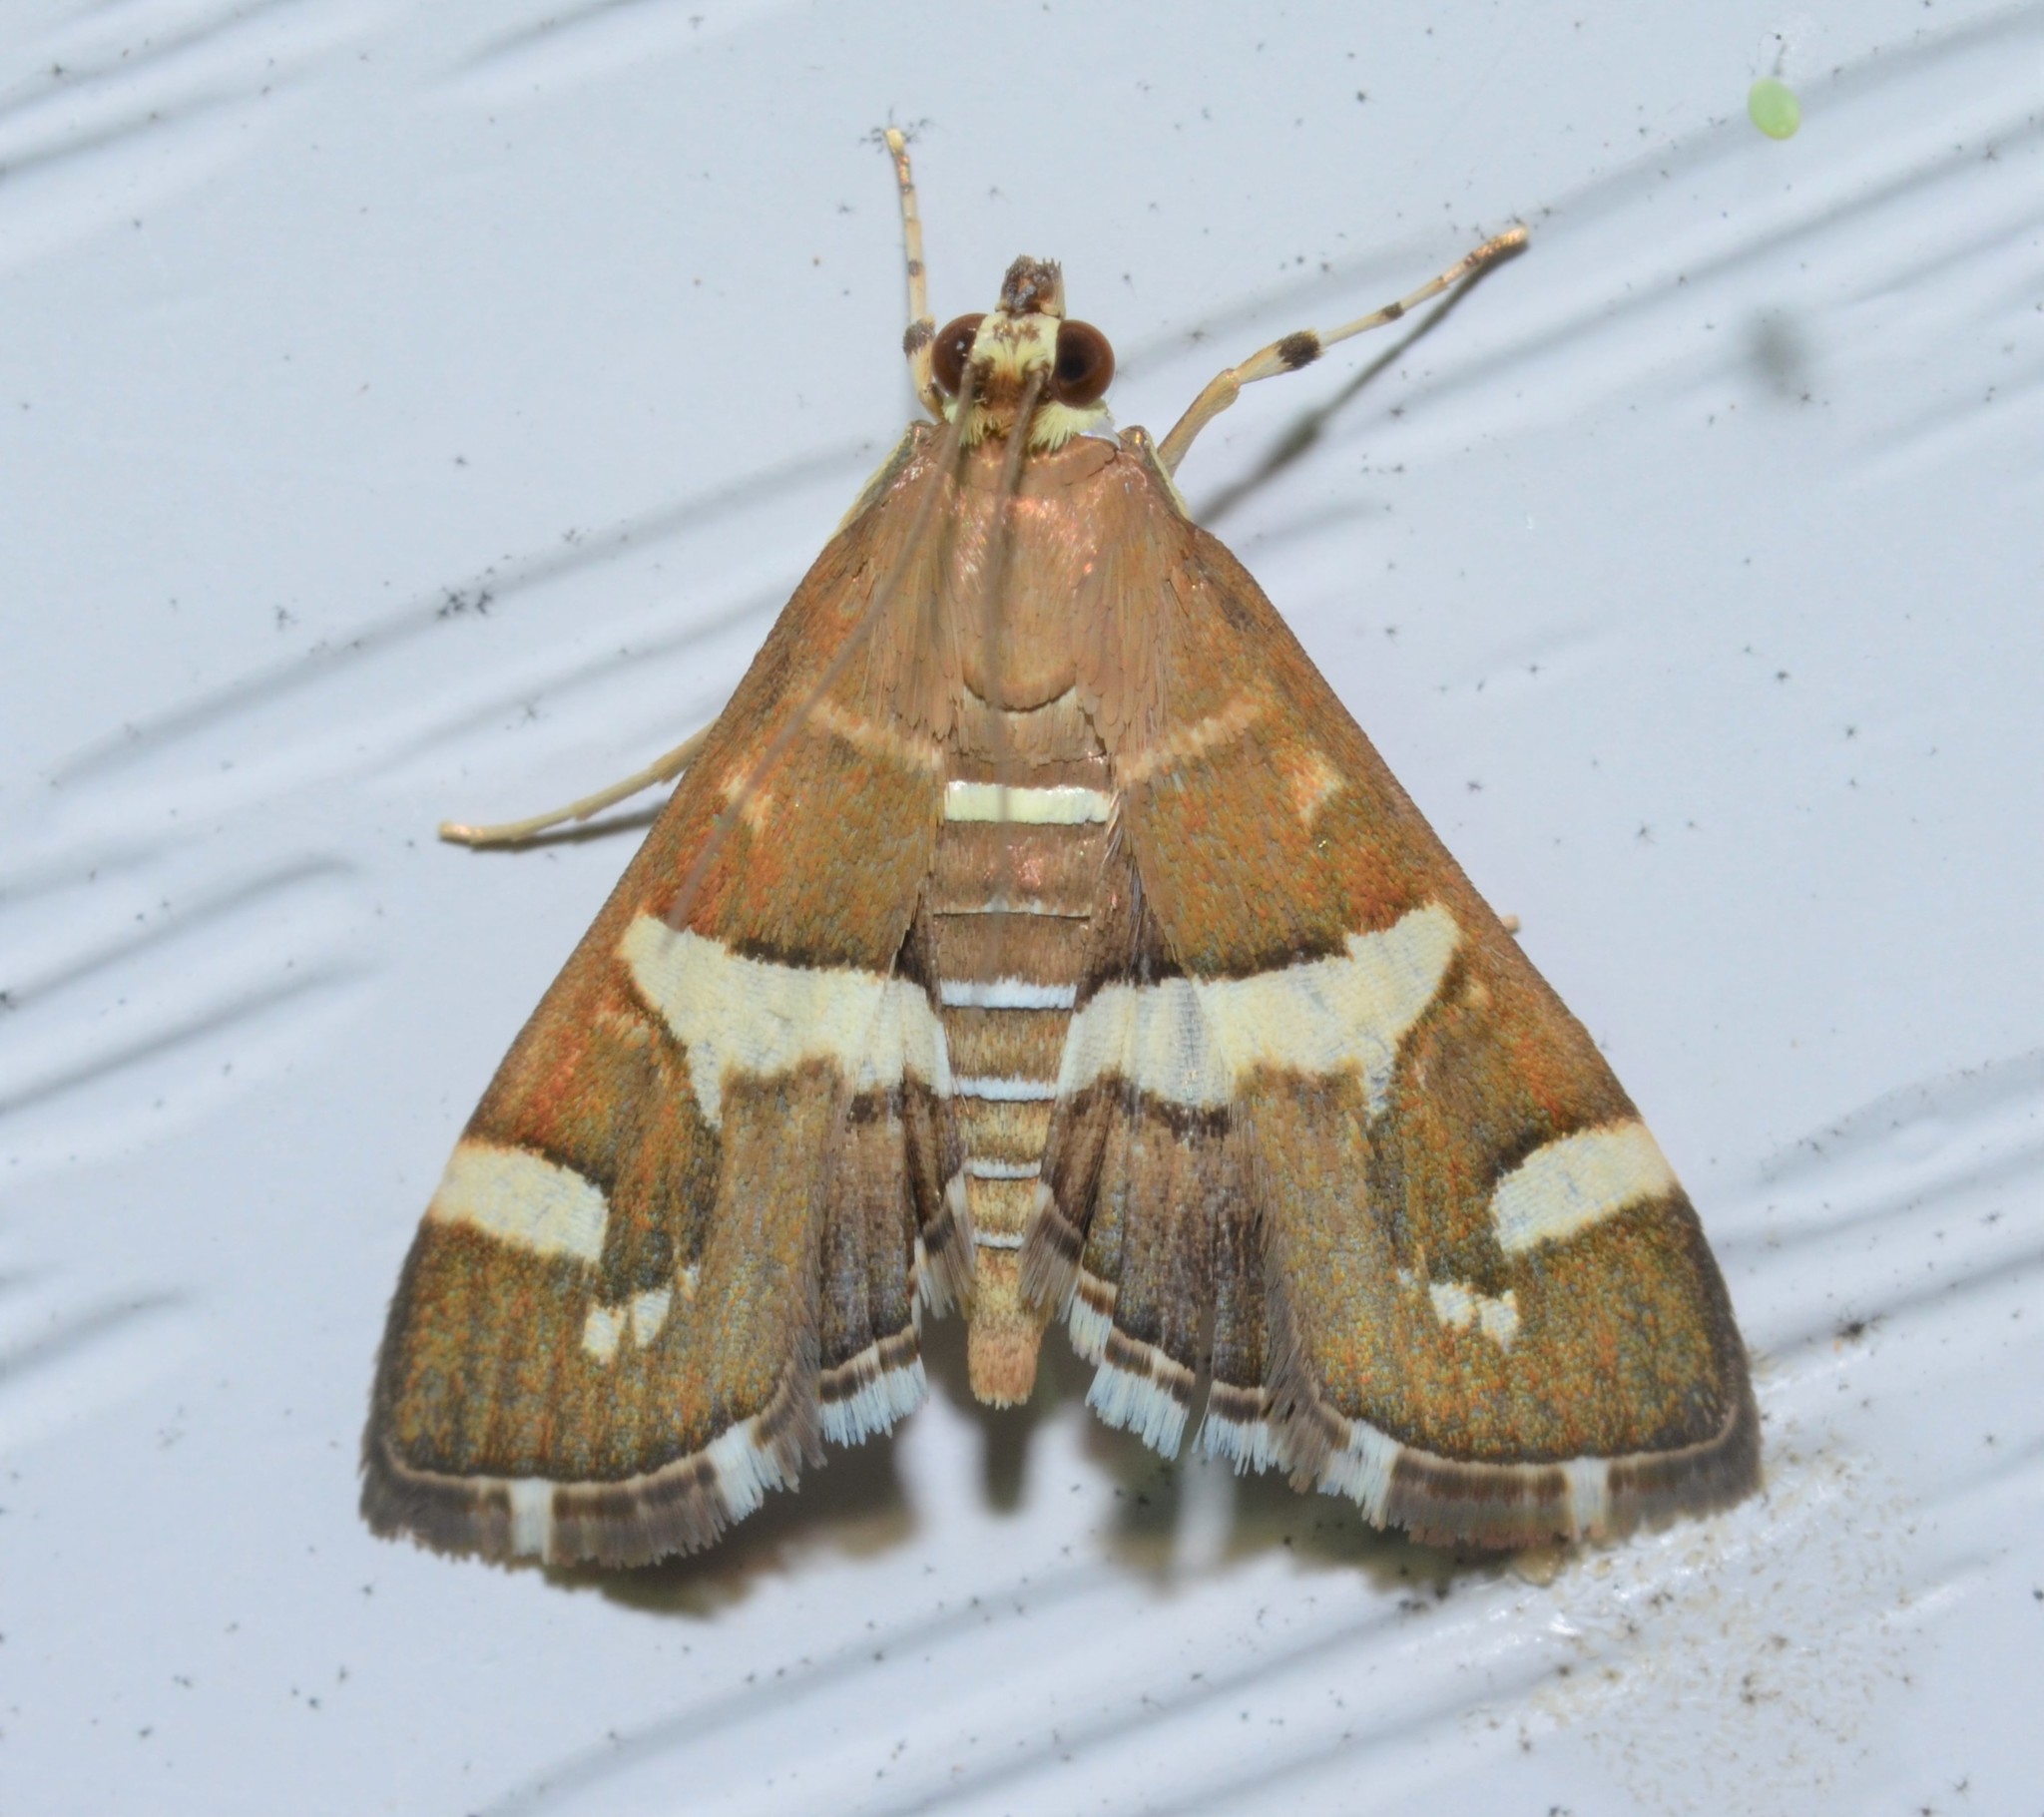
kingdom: Animalia
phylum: Arthropoda
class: Insecta
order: Lepidoptera
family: Crambidae
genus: Spoladea
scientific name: Spoladea recurvalis
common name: Beet webworm moth
